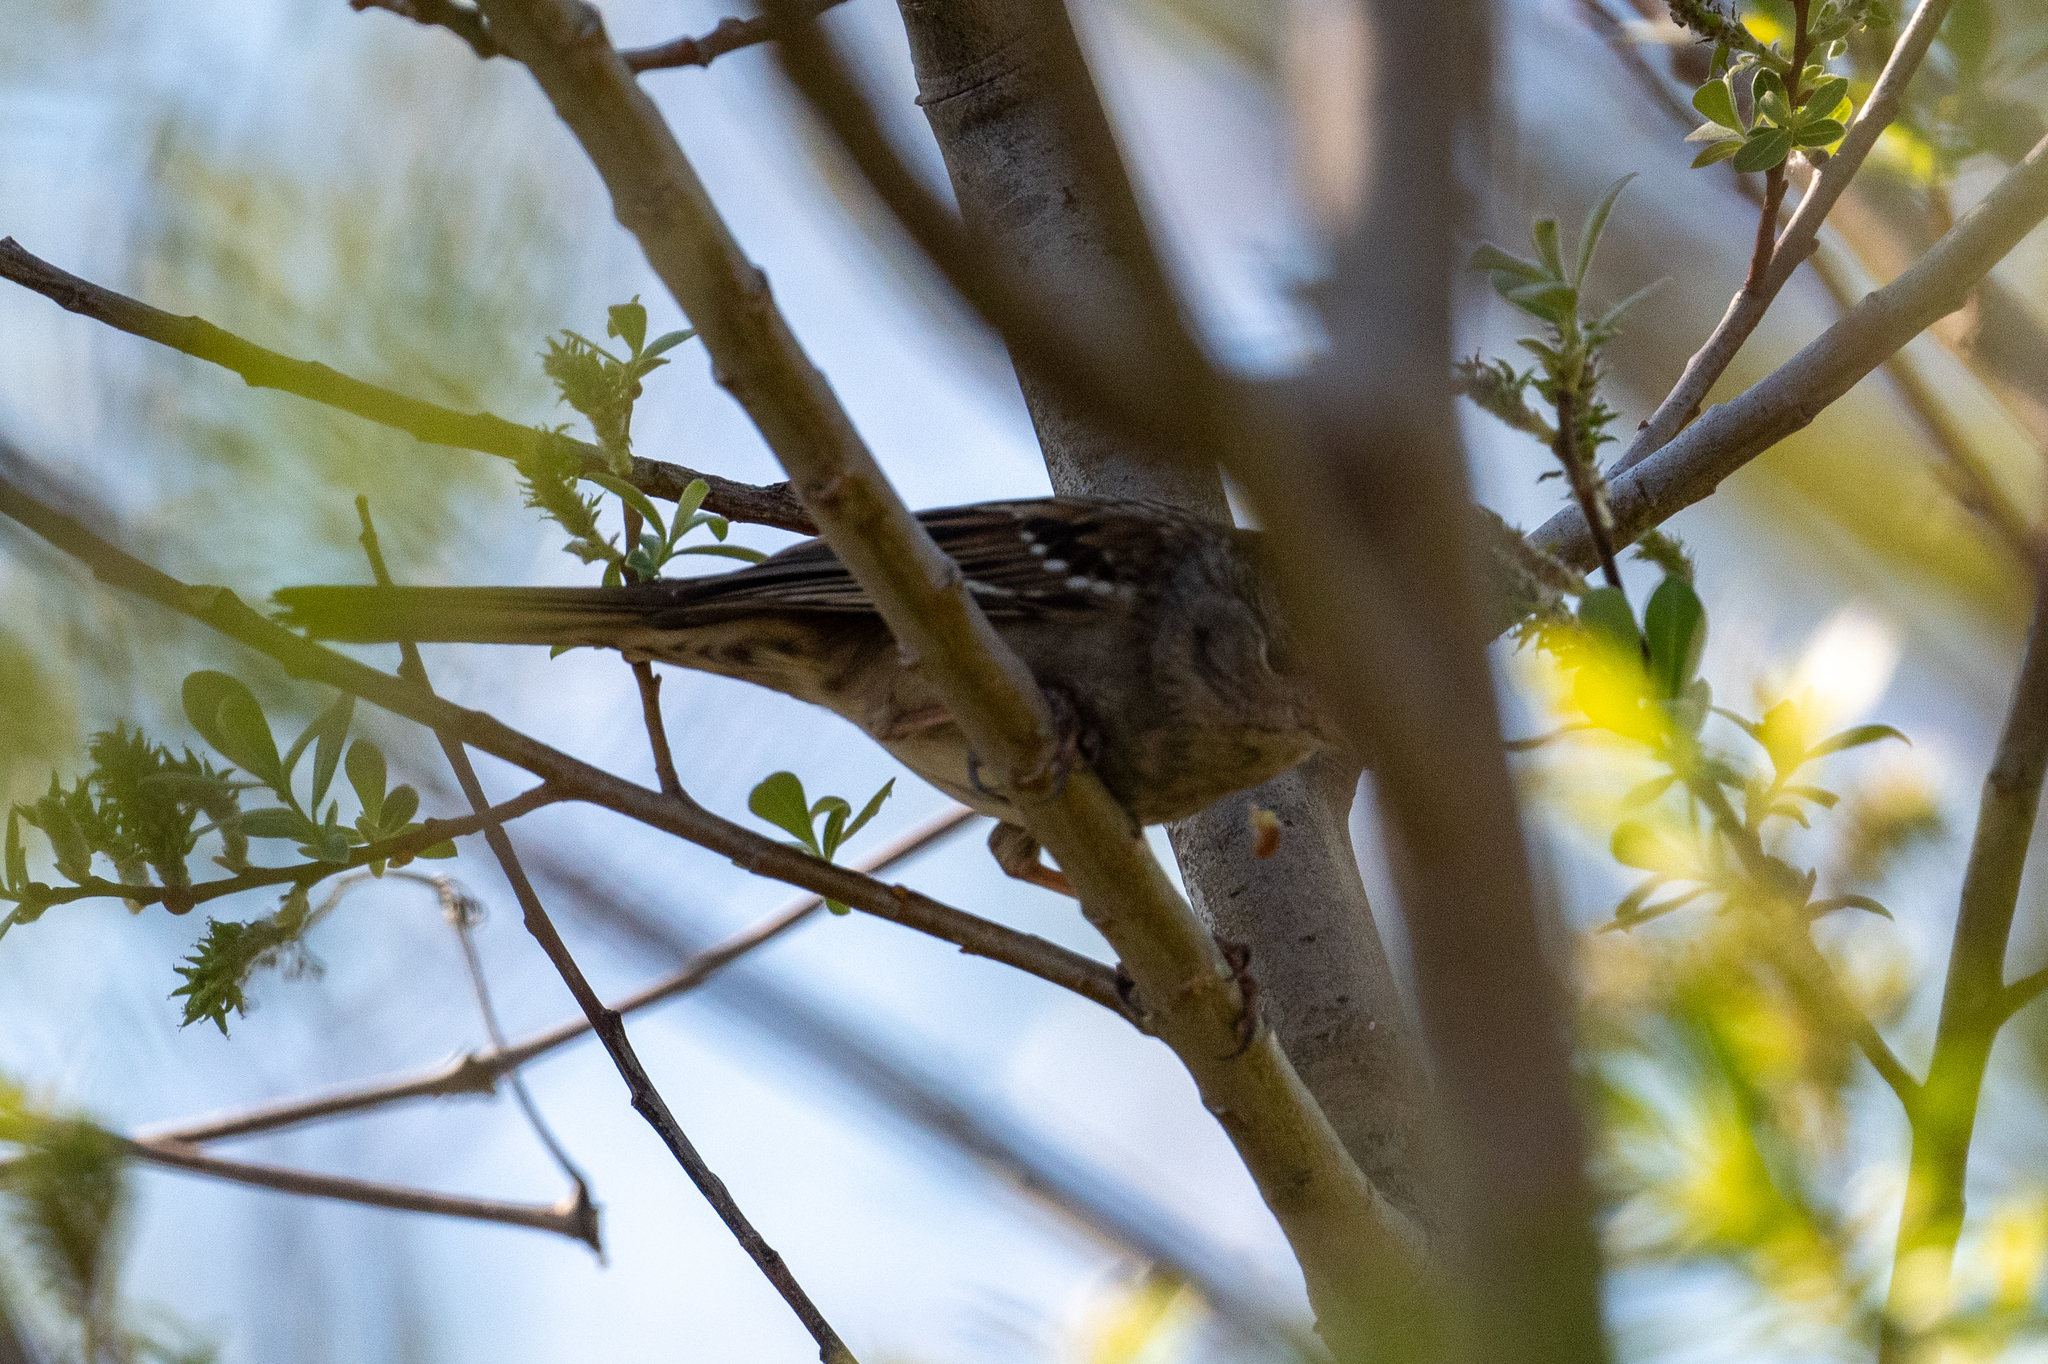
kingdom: Animalia
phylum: Chordata
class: Aves
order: Passeriformes
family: Passerellidae
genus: Zonotrichia
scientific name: Zonotrichia atricapilla
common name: Golden-crowned sparrow
